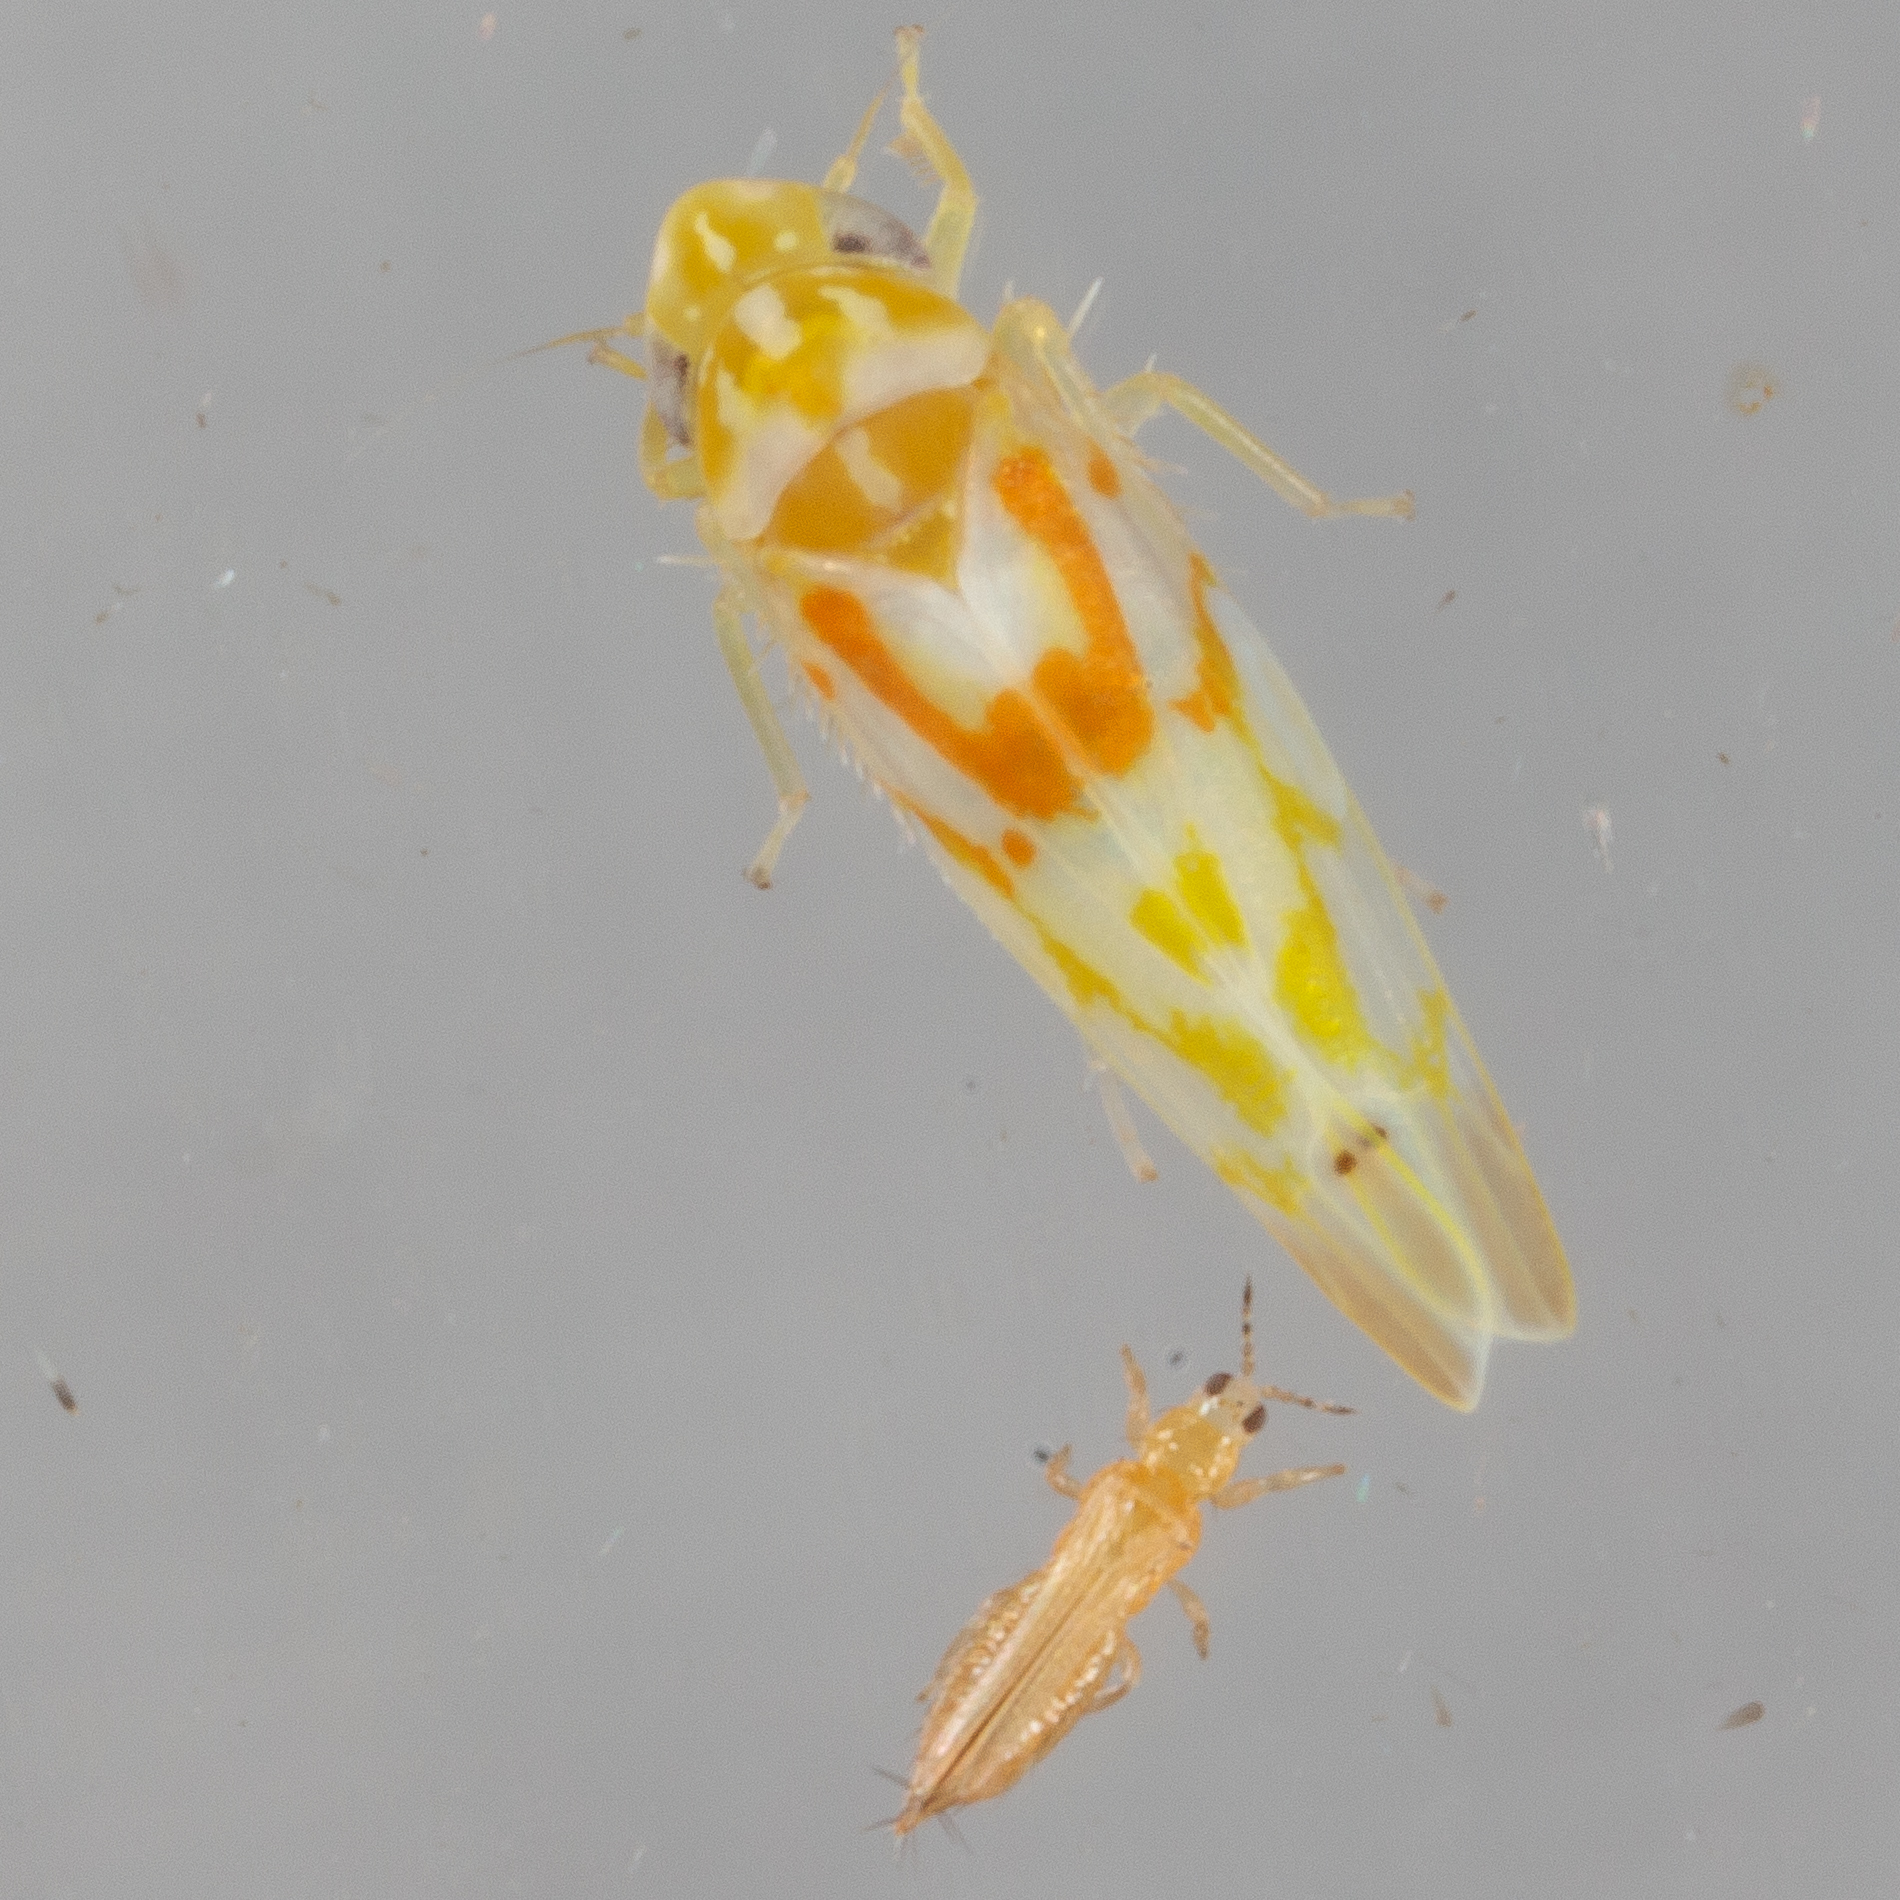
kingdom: Animalia
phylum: Arthropoda
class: Insecta
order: Hemiptera
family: Cicadellidae
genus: Eratoneura
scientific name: Eratoneura affinis
